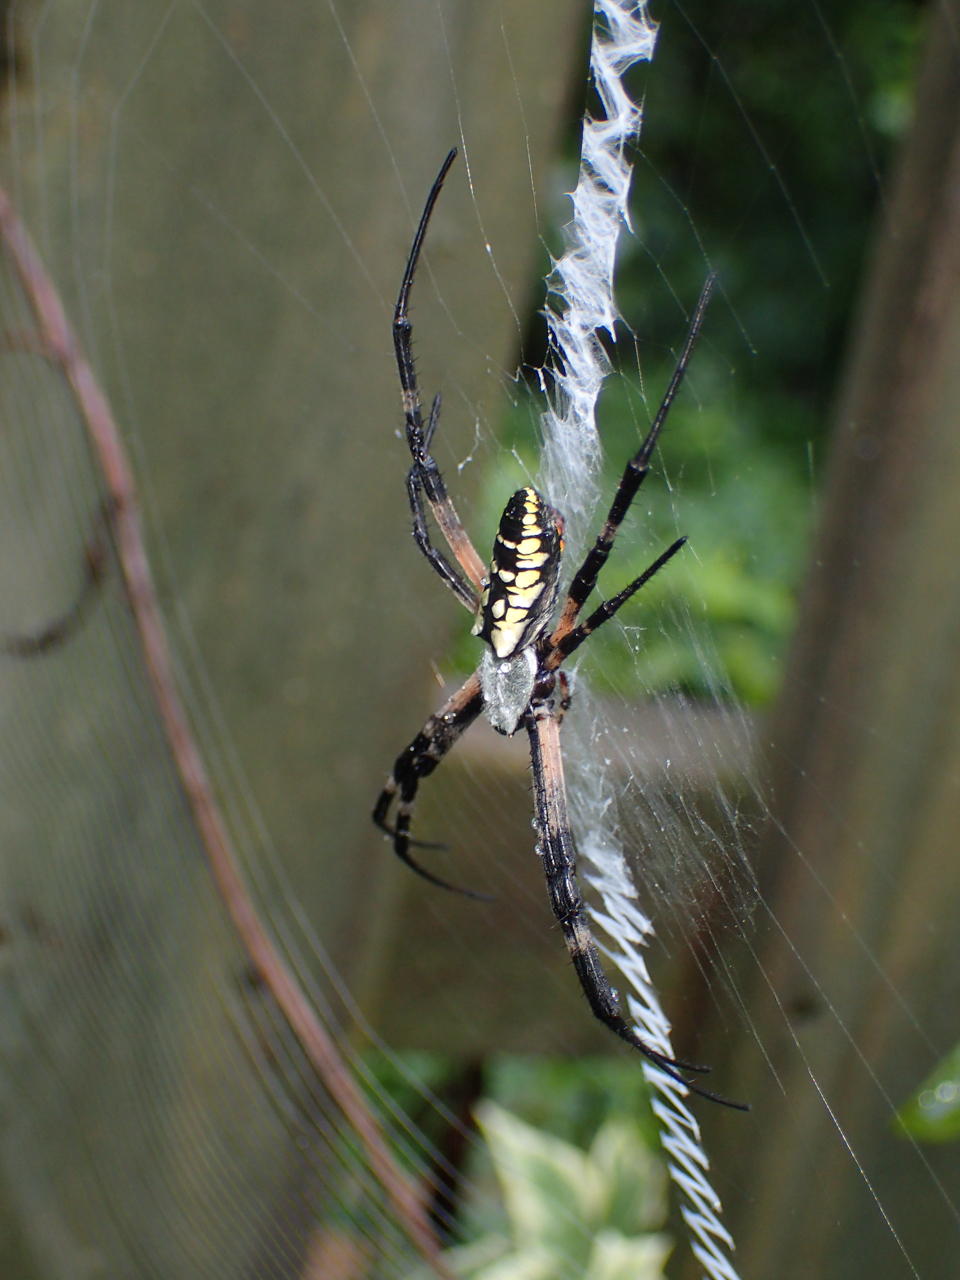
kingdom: Animalia
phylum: Arthropoda
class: Arachnida
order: Araneae
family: Araneidae
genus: Argiope
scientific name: Argiope aurantia
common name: Orb weavers
